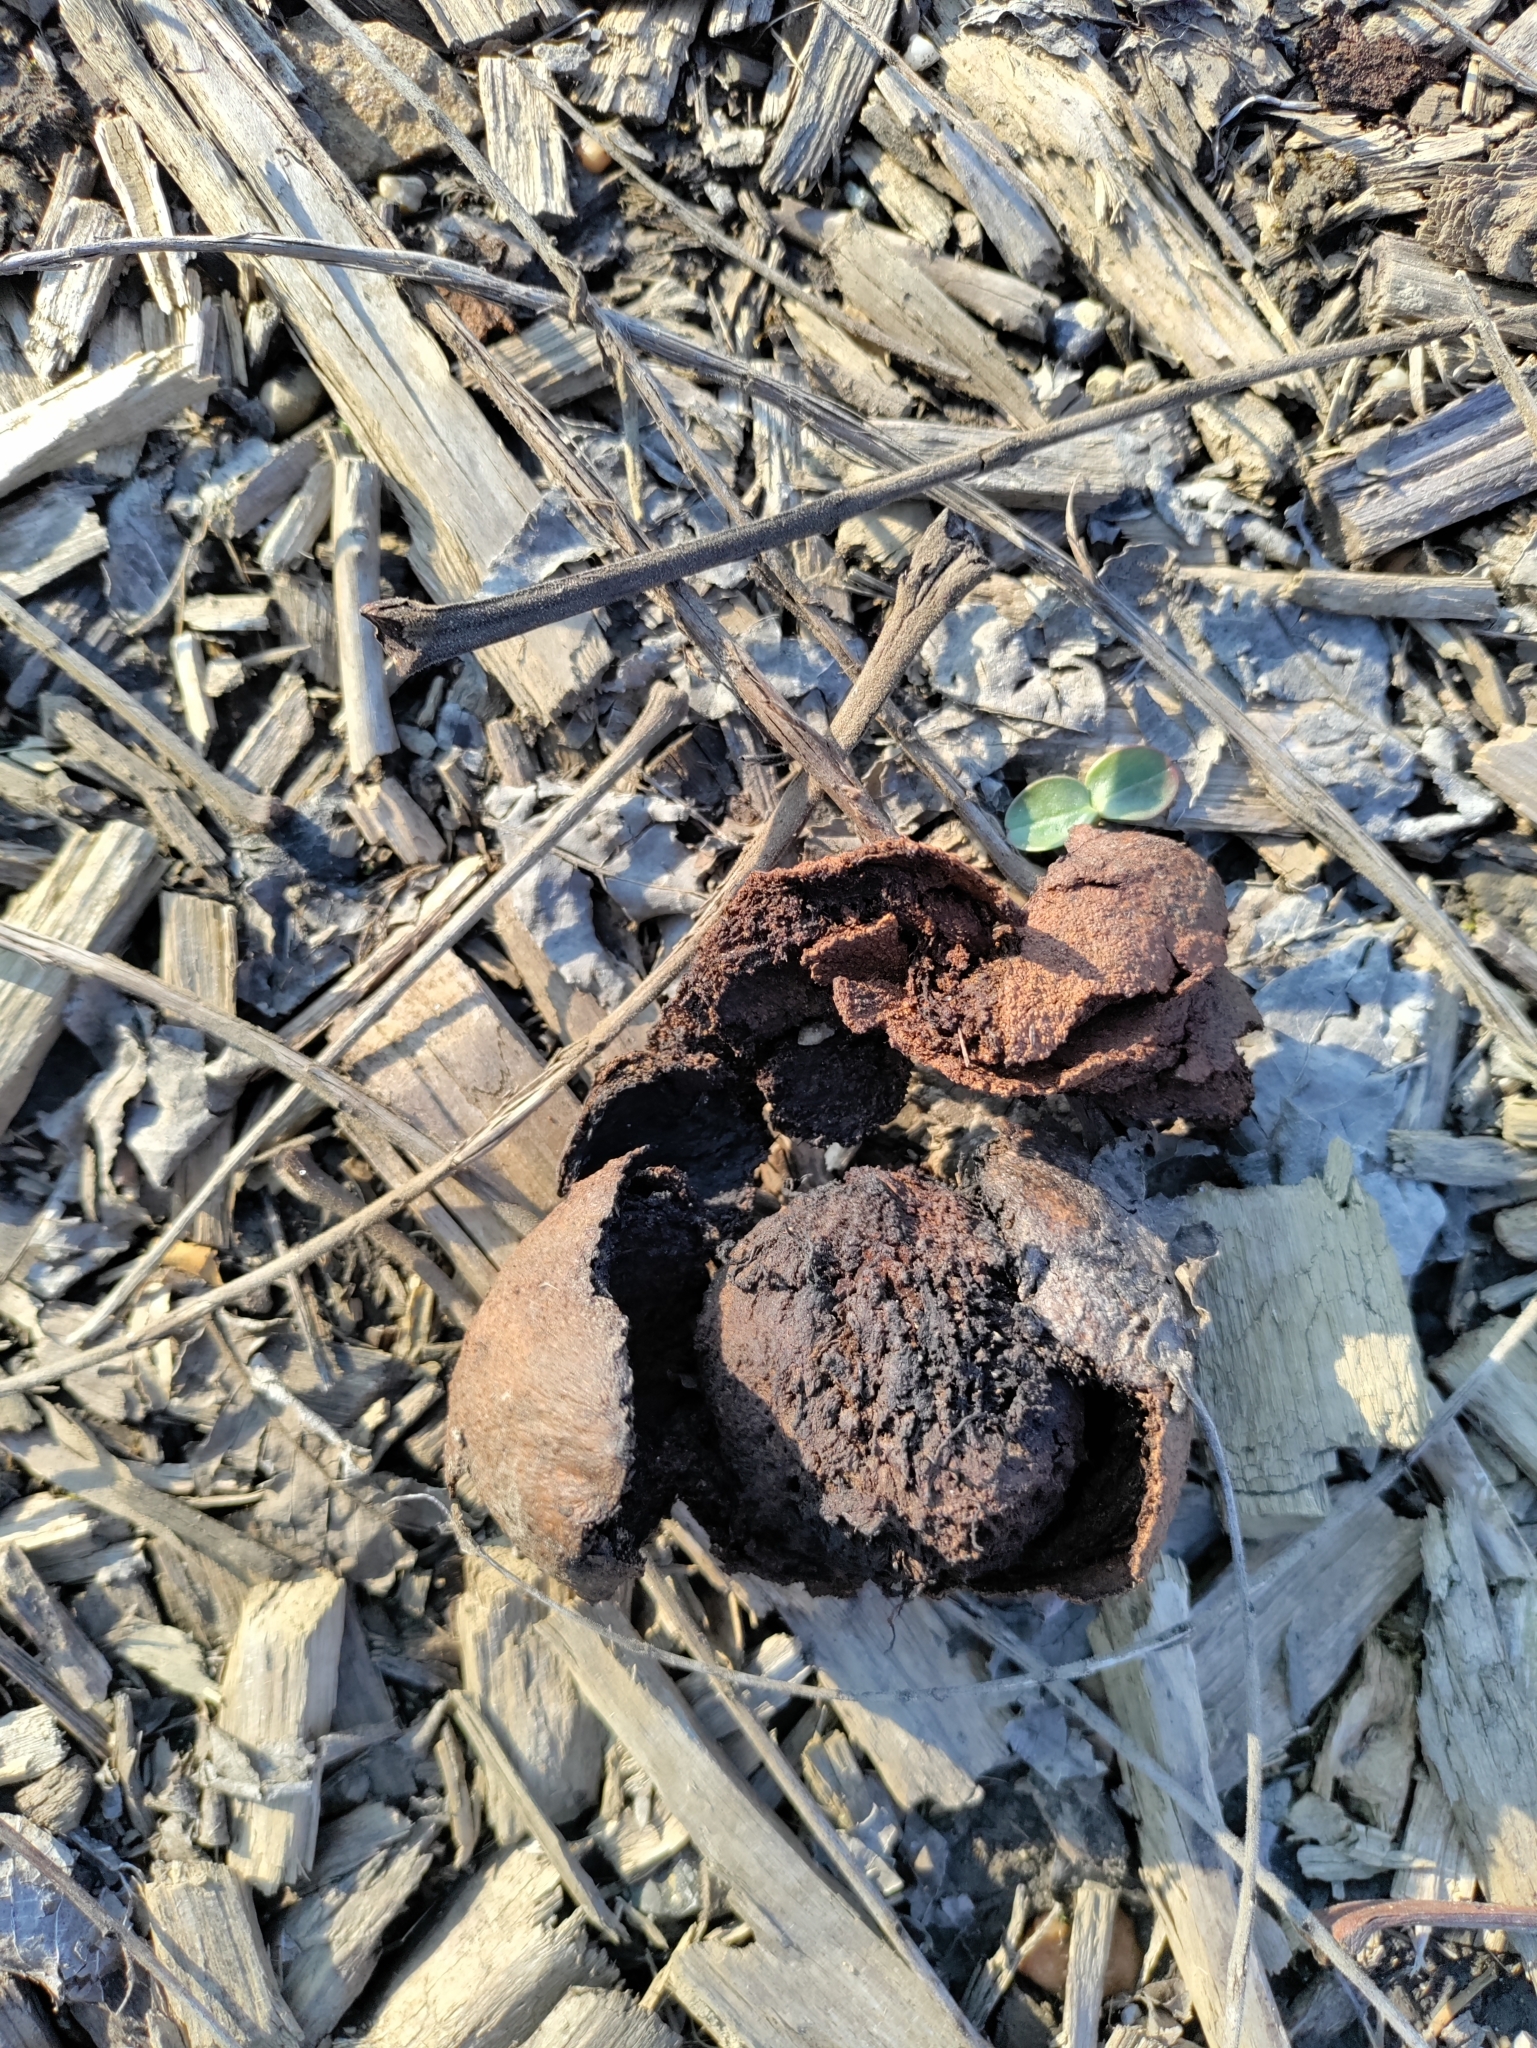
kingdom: Plantae
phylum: Tracheophyta
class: Magnoliopsida
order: Fagales
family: Juglandaceae
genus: Juglans
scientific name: Juglans nigra
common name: Black walnut
